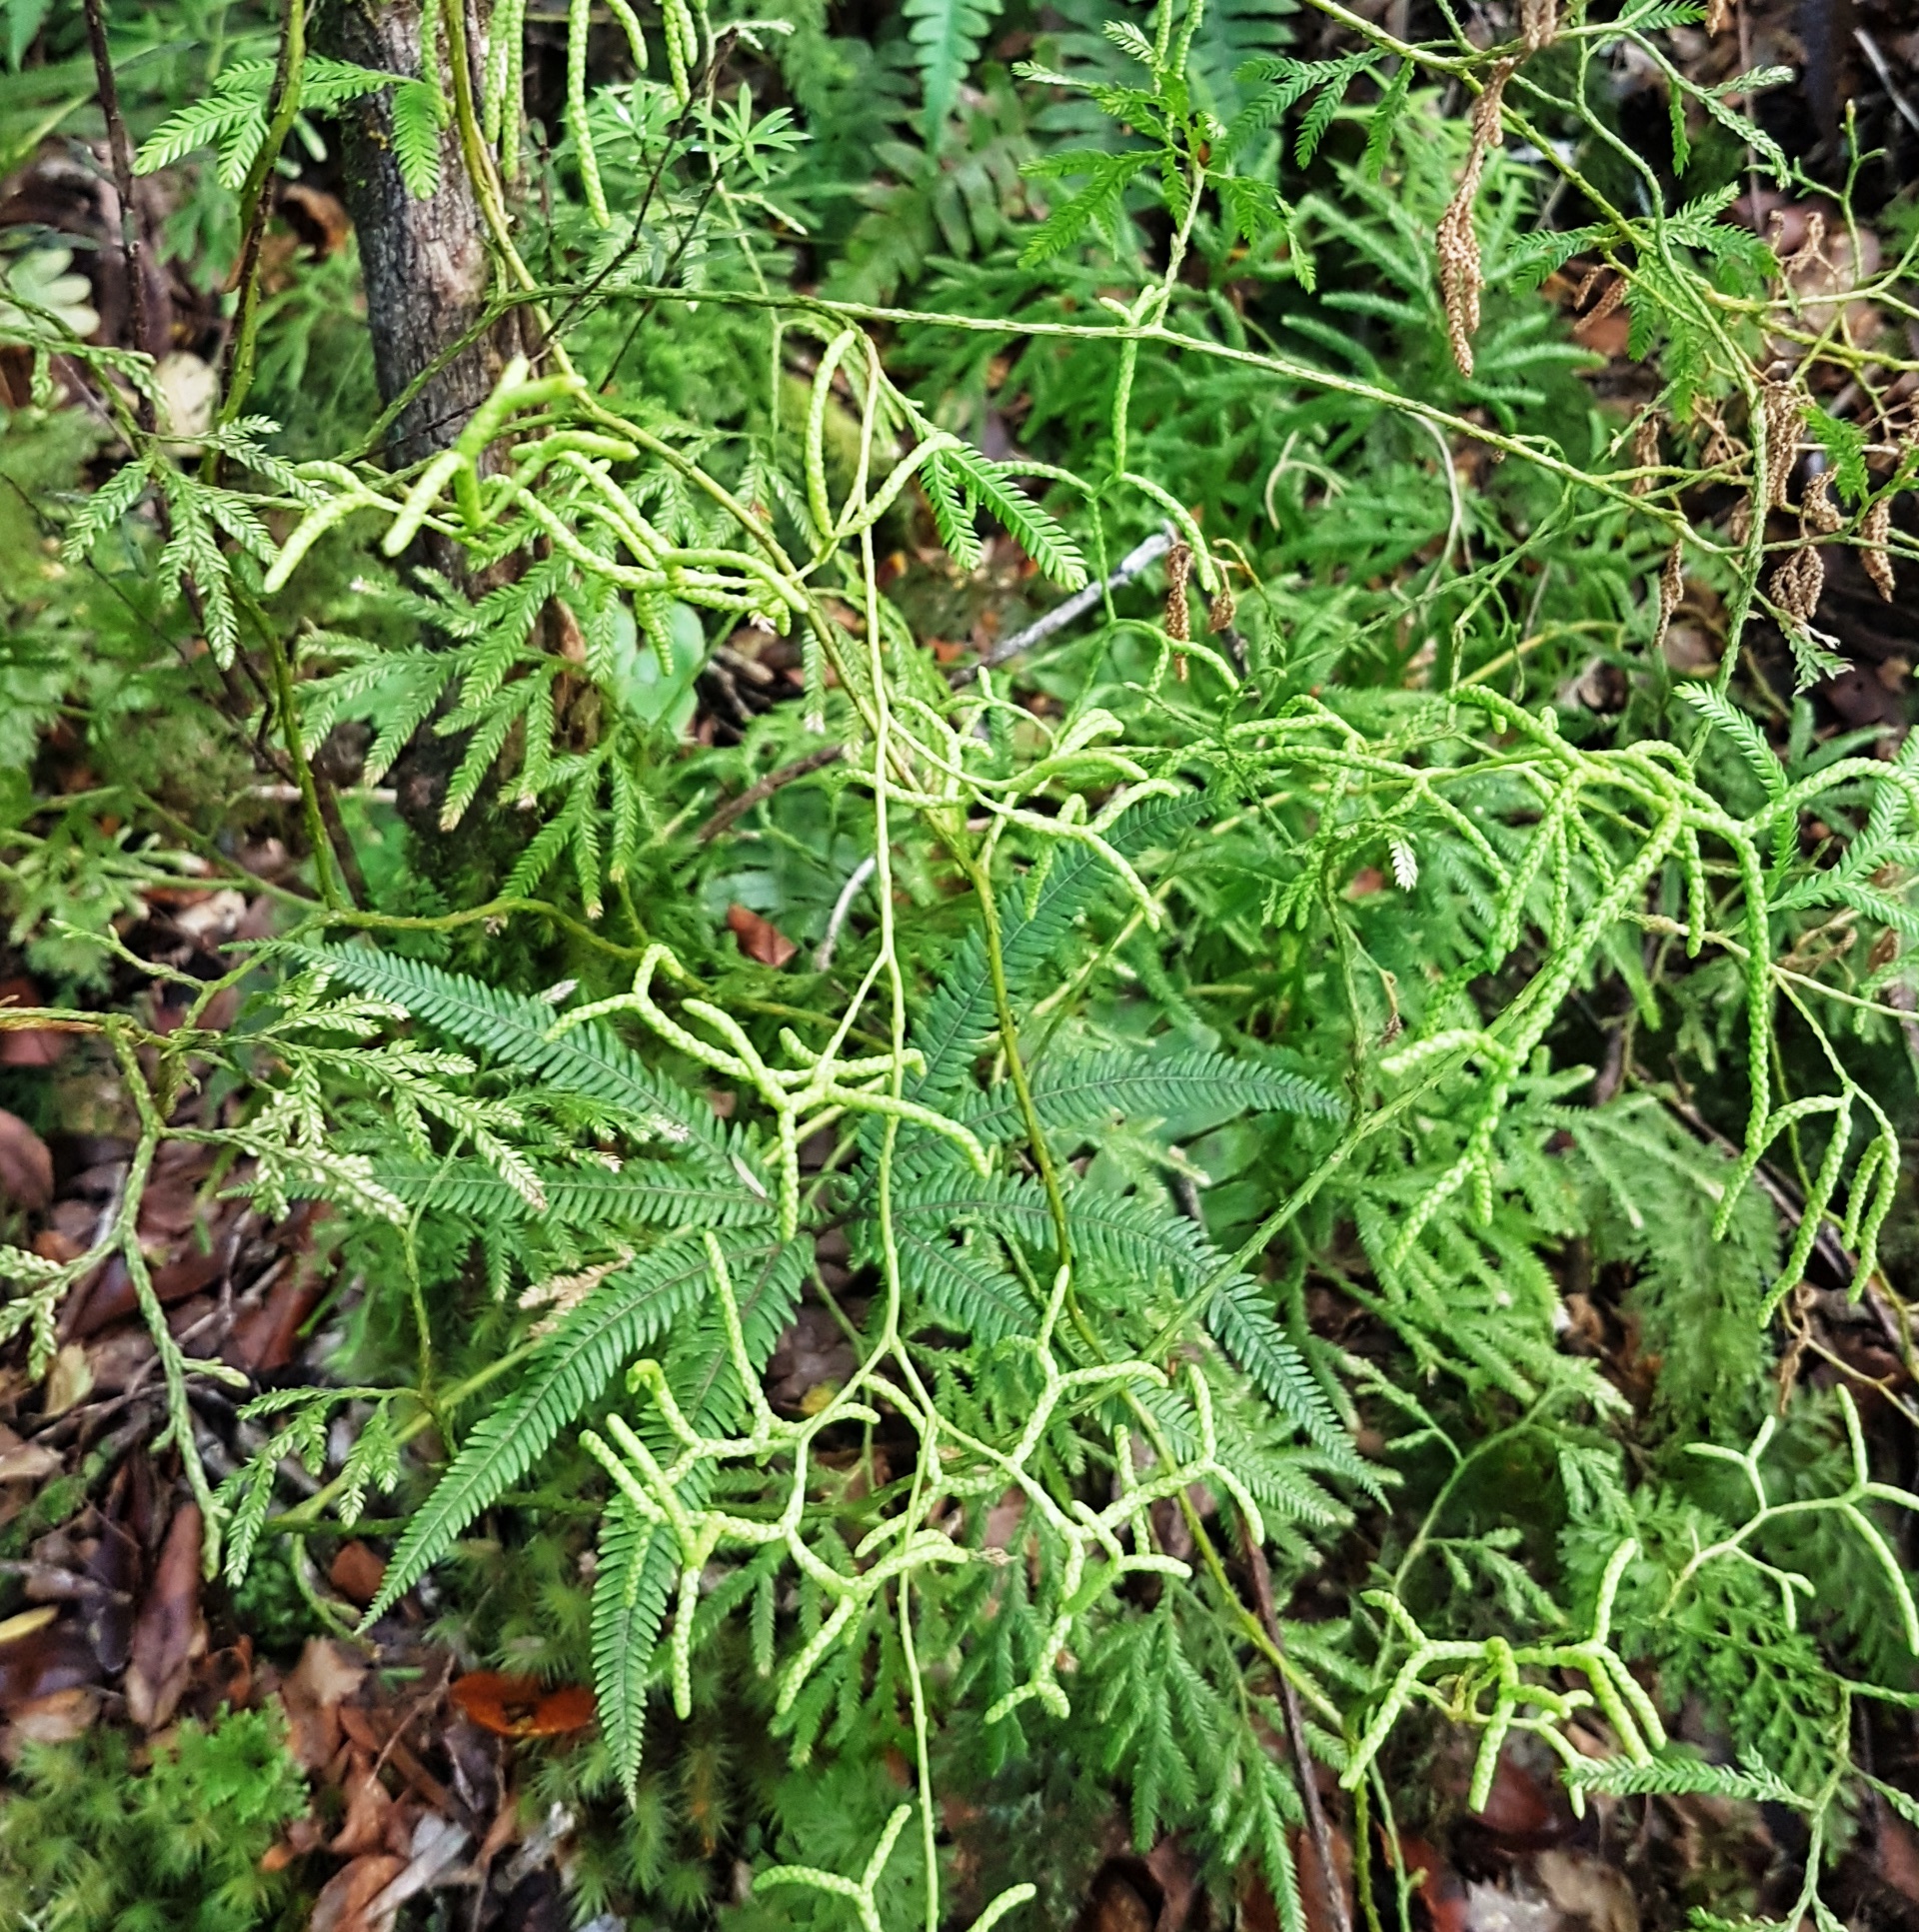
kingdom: Plantae
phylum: Tracheophyta
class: Lycopodiopsida
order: Lycopodiales
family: Lycopodiaceae
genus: Lycopodium
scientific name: Lycopodium volubile
